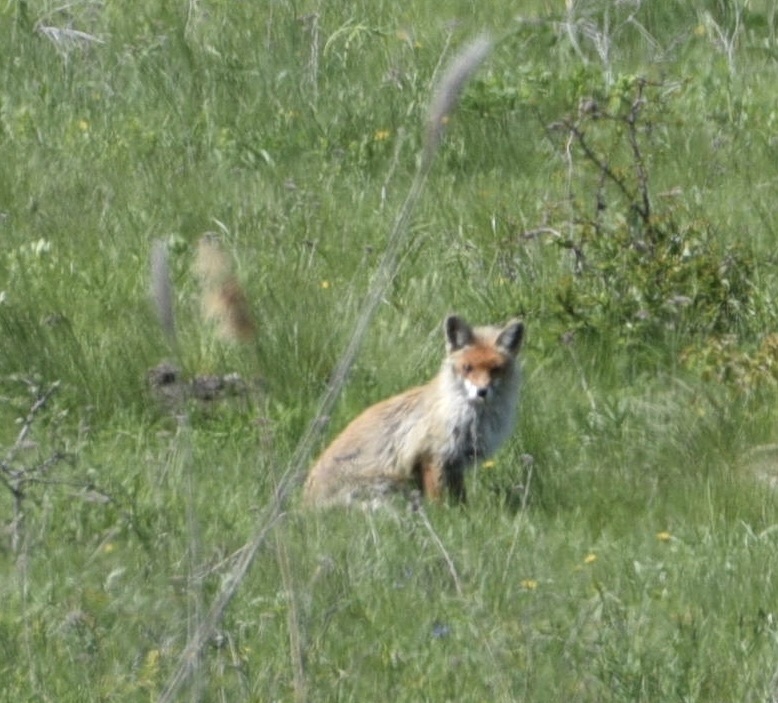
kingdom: Animalia
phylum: Chordata
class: Mammalia
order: Carnivora
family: Canidae
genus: Vulpes
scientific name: Vulpes vulpes
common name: Red fox
